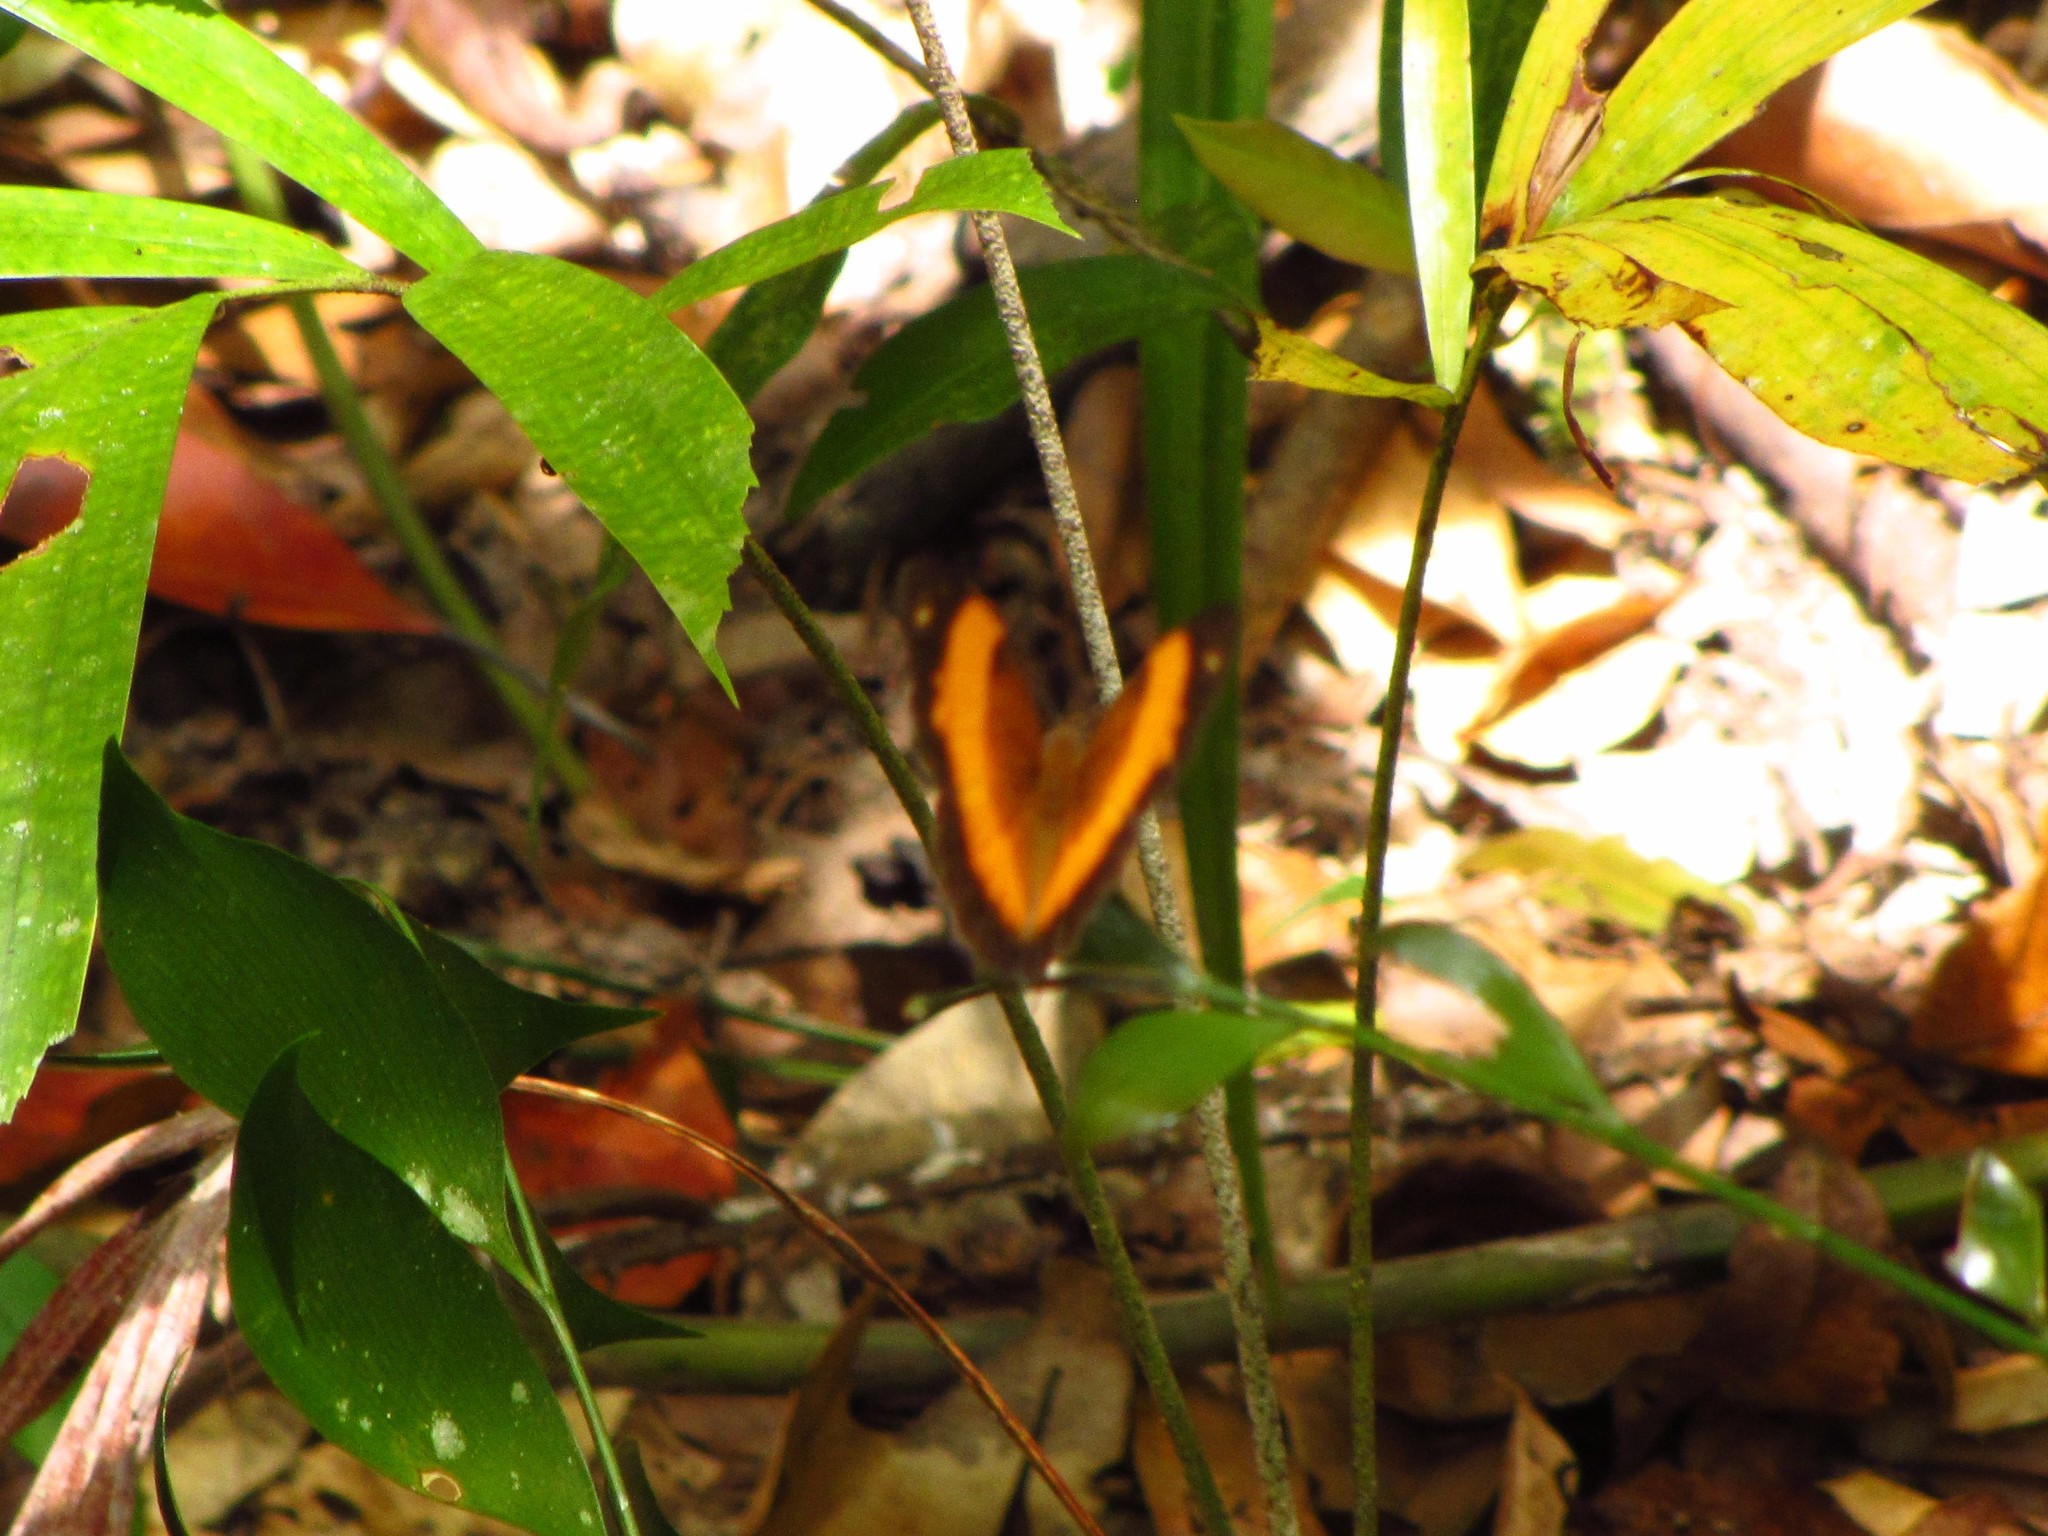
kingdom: Animalia
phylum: Arthropoda
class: Insecta
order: Lepidoptera
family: Nymphalidae
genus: Cupha
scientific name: Cupha prosope
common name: Bordered rustic
